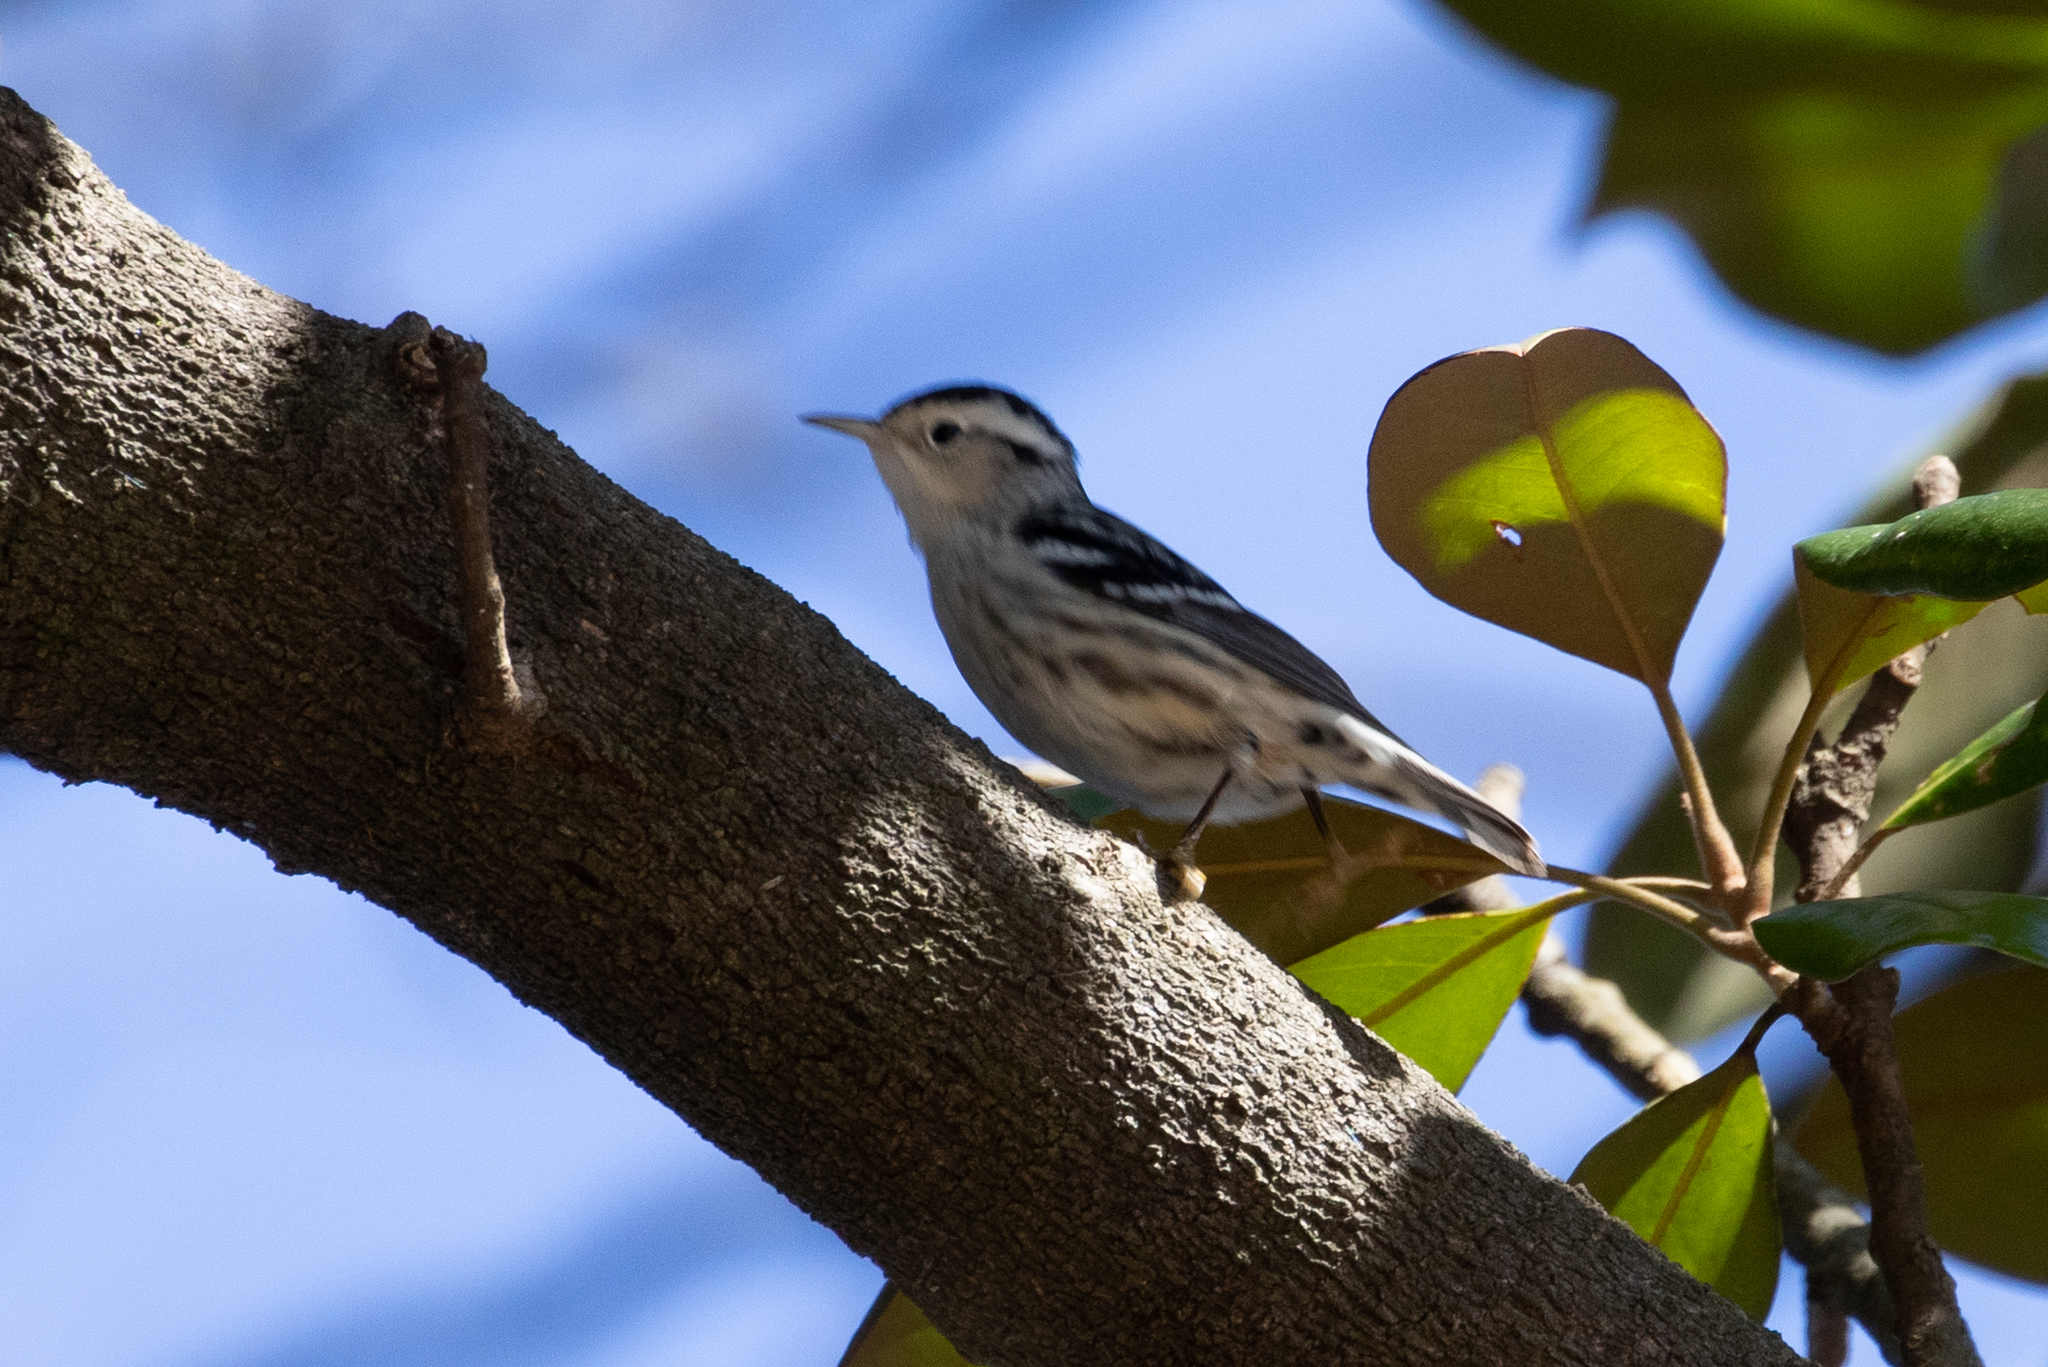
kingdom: Animalia
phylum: Chordata
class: Aves
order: Passeriformes
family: Parulidae
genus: Mniotilta
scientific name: Mniotilta varia
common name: Black-and-white warbler
